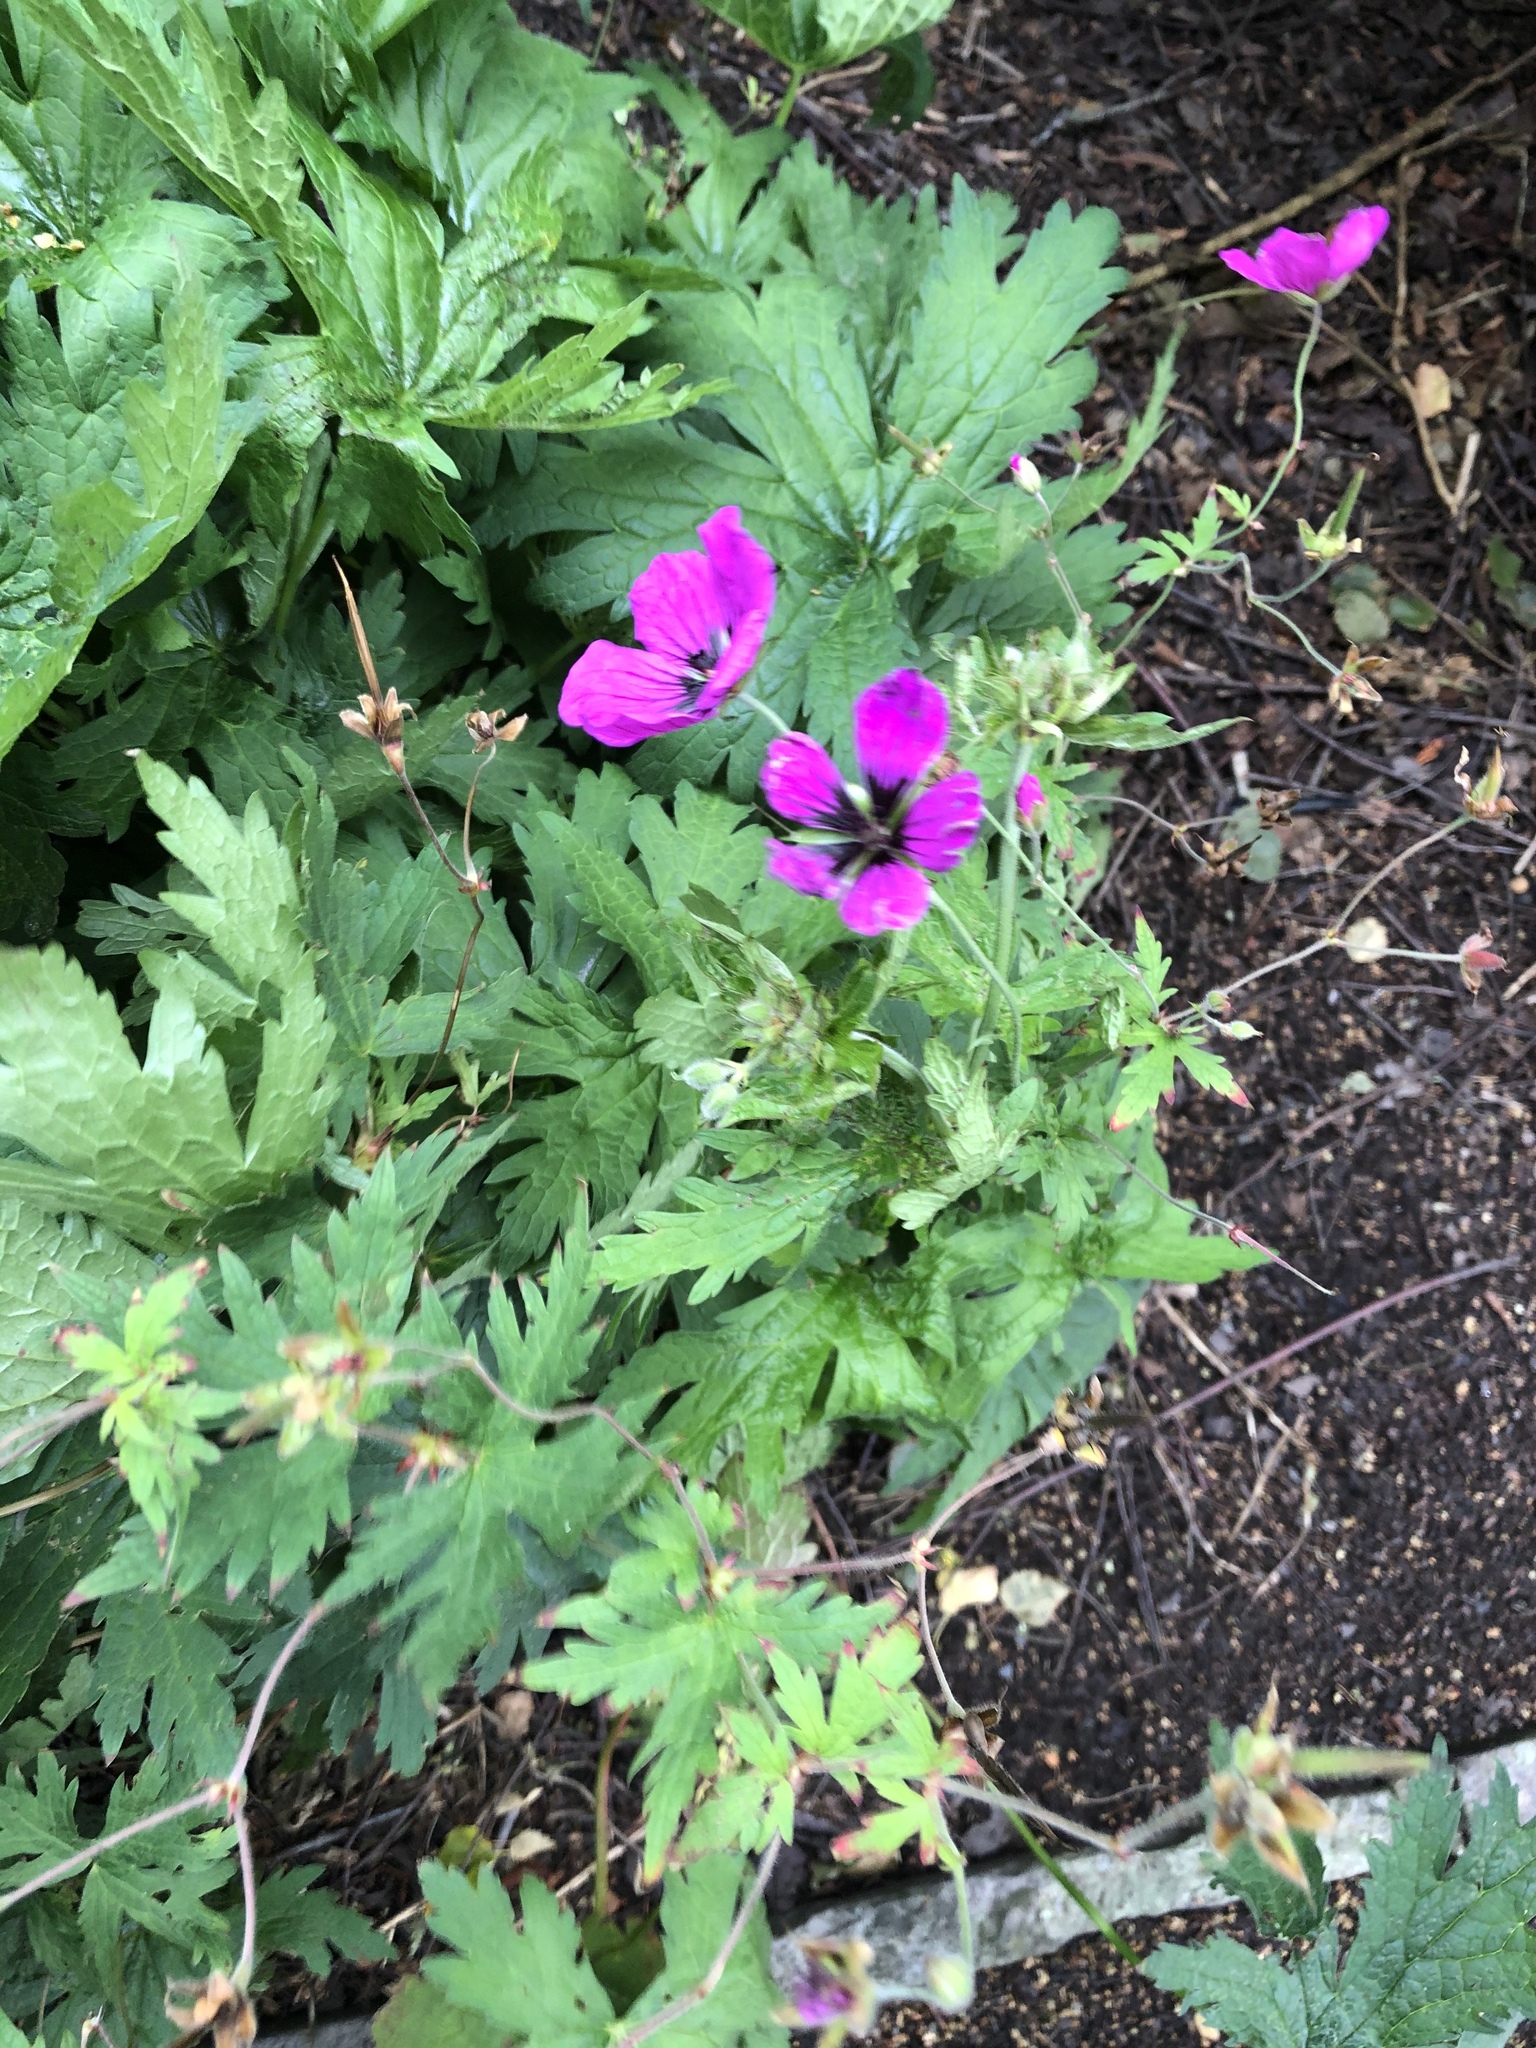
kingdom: Plantae
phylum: Tracheophyta
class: Magnoliopsida
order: Geraniales
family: Geraniaceae
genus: Geranium
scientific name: Geranium psilostemon
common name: Armenian crane's-bill
